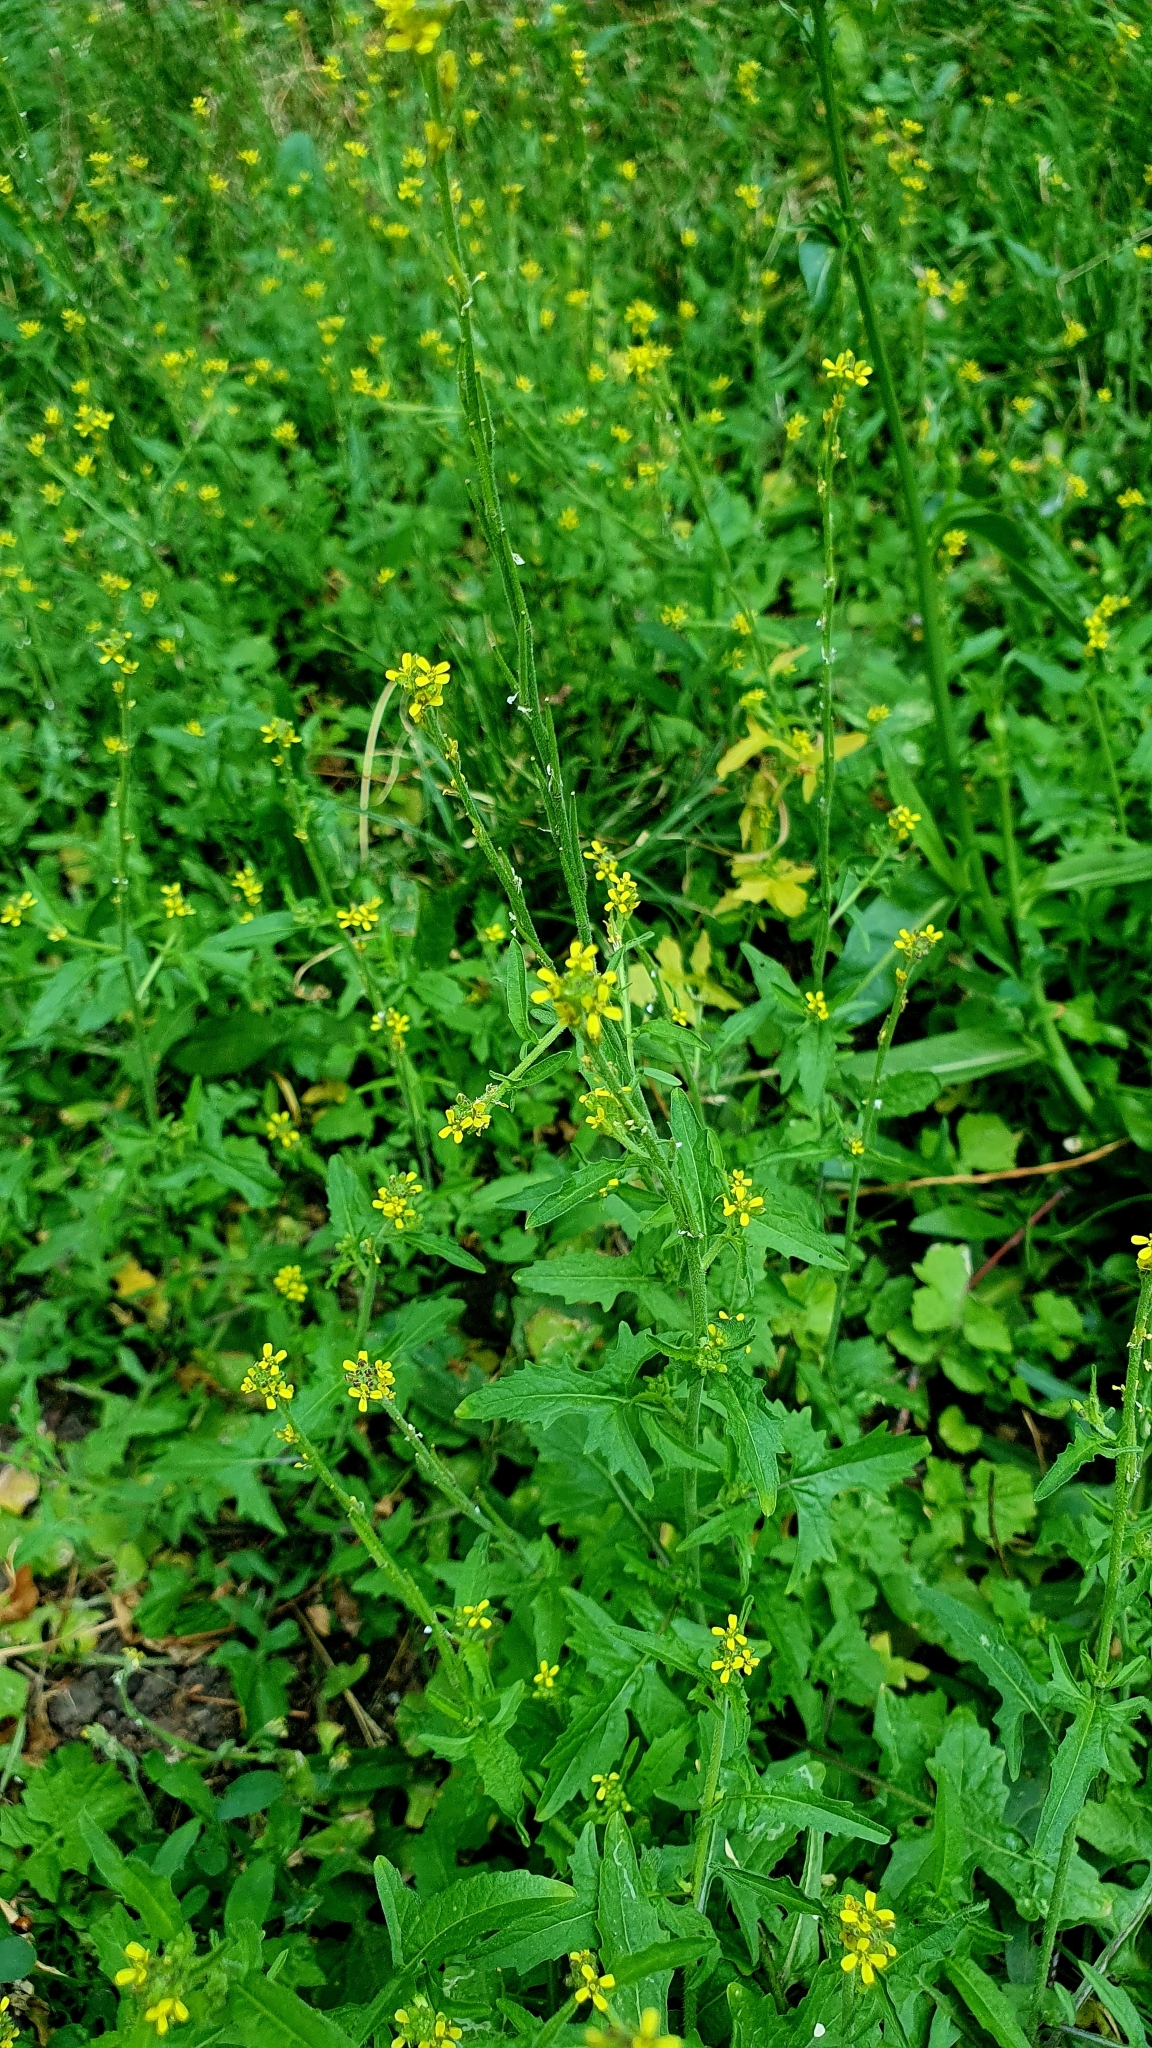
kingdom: Plantae
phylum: Tracheophyta
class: Magnoliopsida
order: Brassicales
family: Brassicaceae
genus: Sisymbrium
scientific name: Sisymbrium officinale
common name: Hedge mustard
